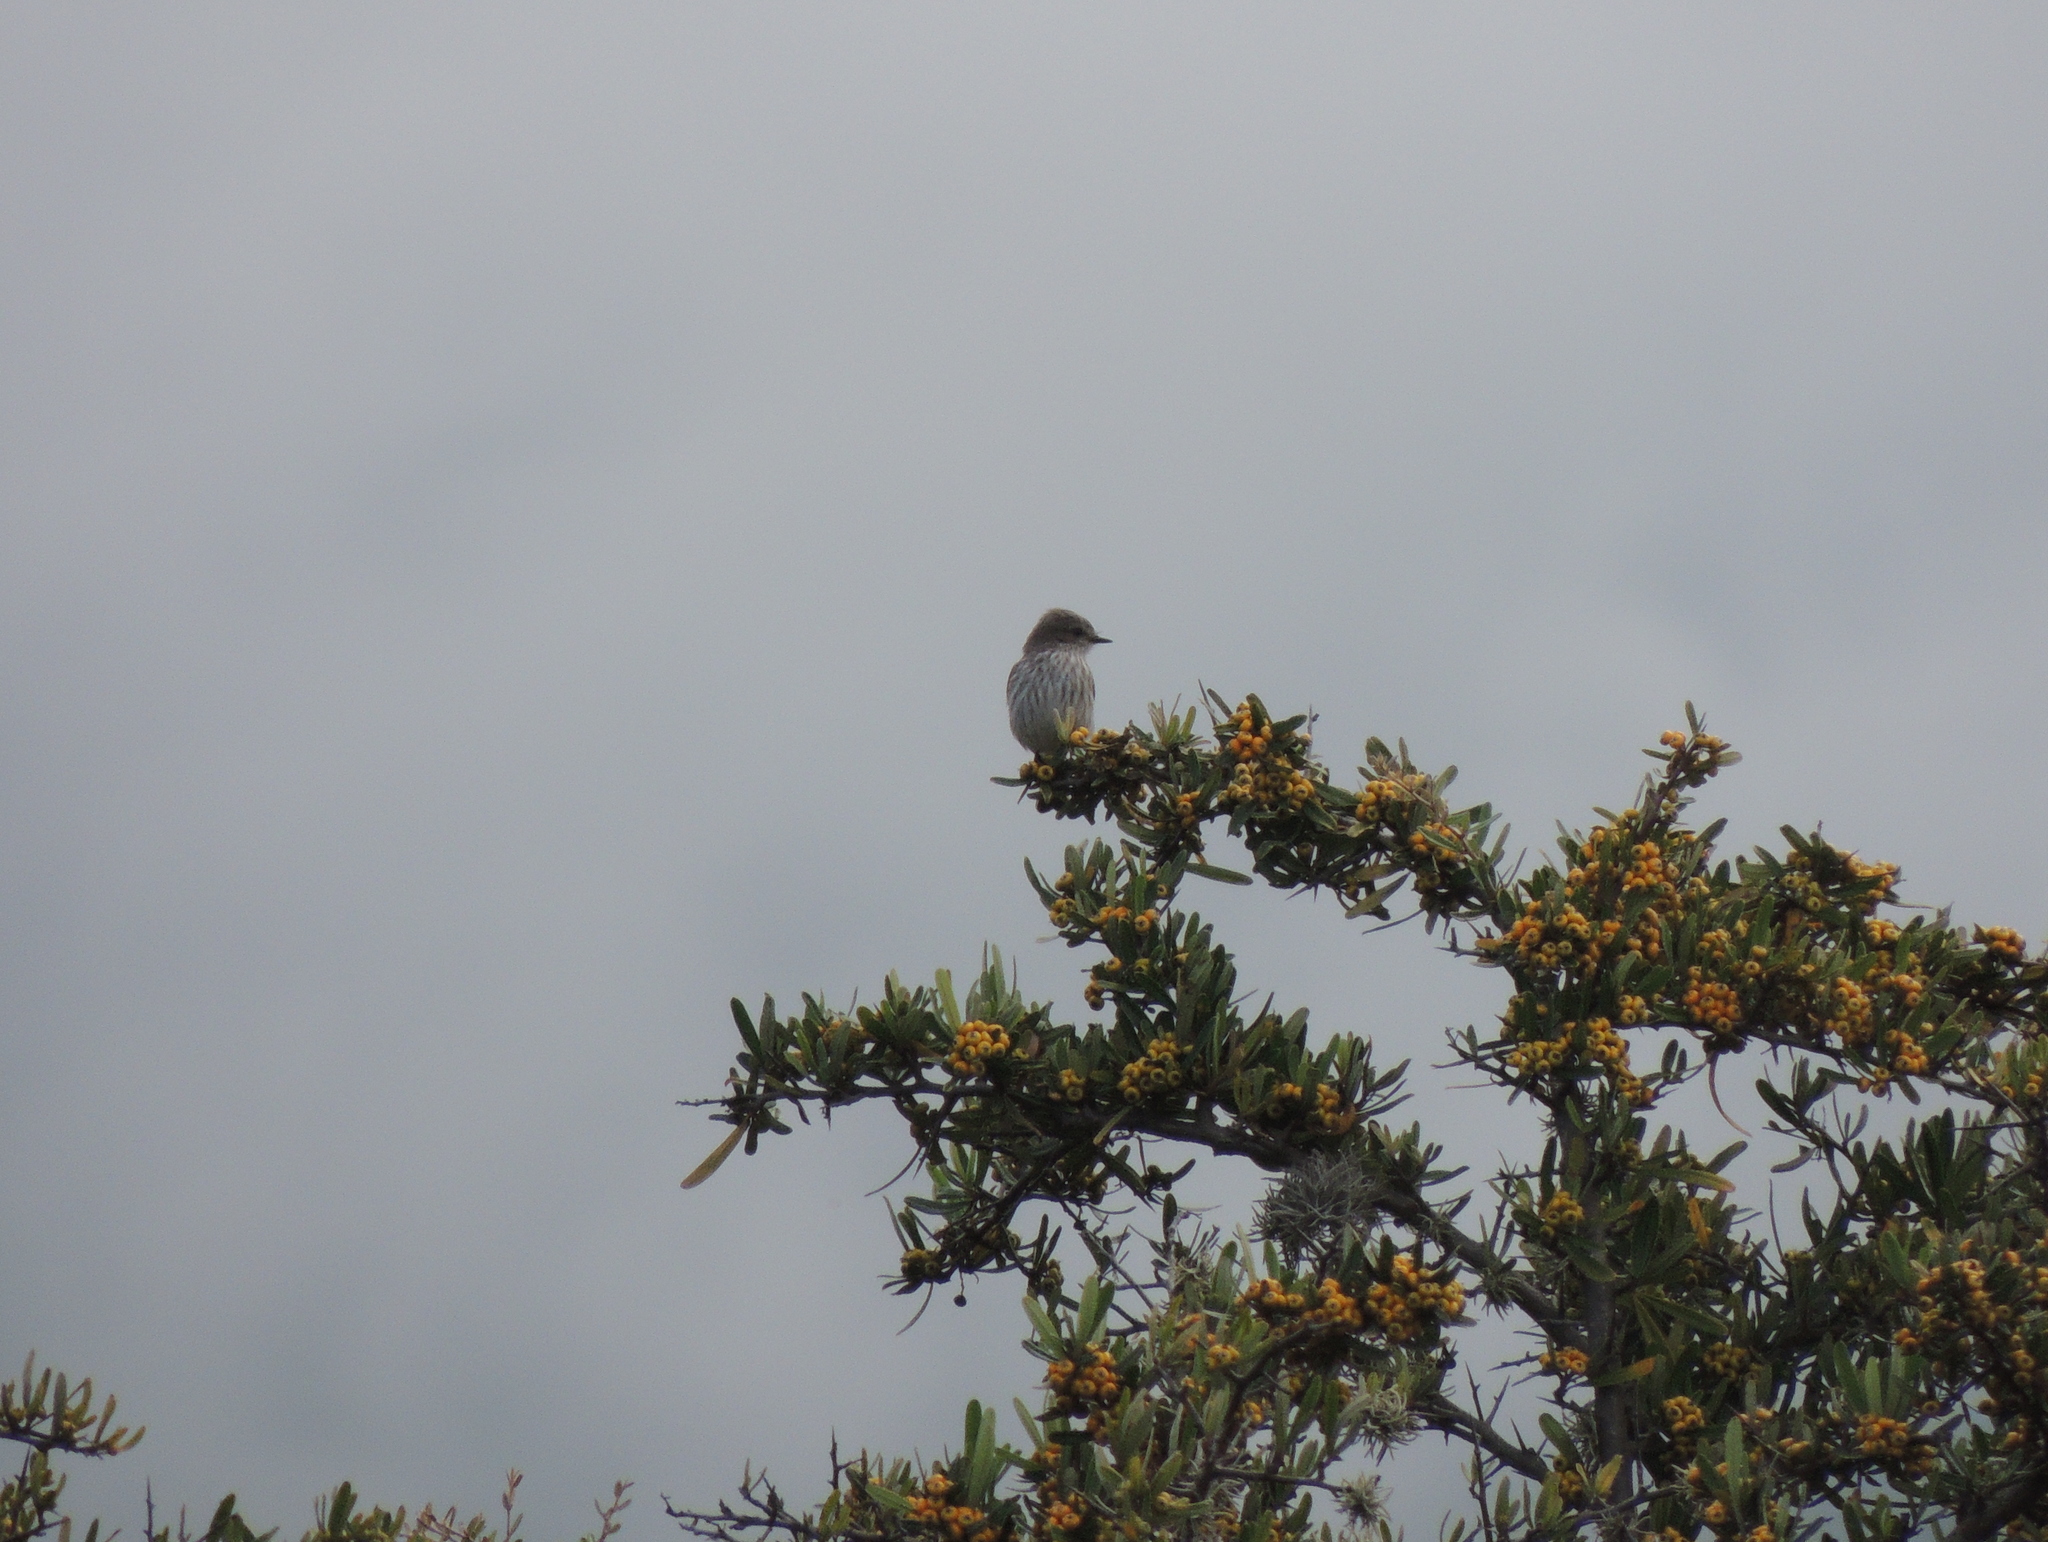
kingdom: Animalia
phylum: Chordata
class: Aves
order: Passeriformes
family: Tyrannidae
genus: Pyrocephalus
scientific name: Pyrocephalus rubinus
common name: Vermilion flycatcher
